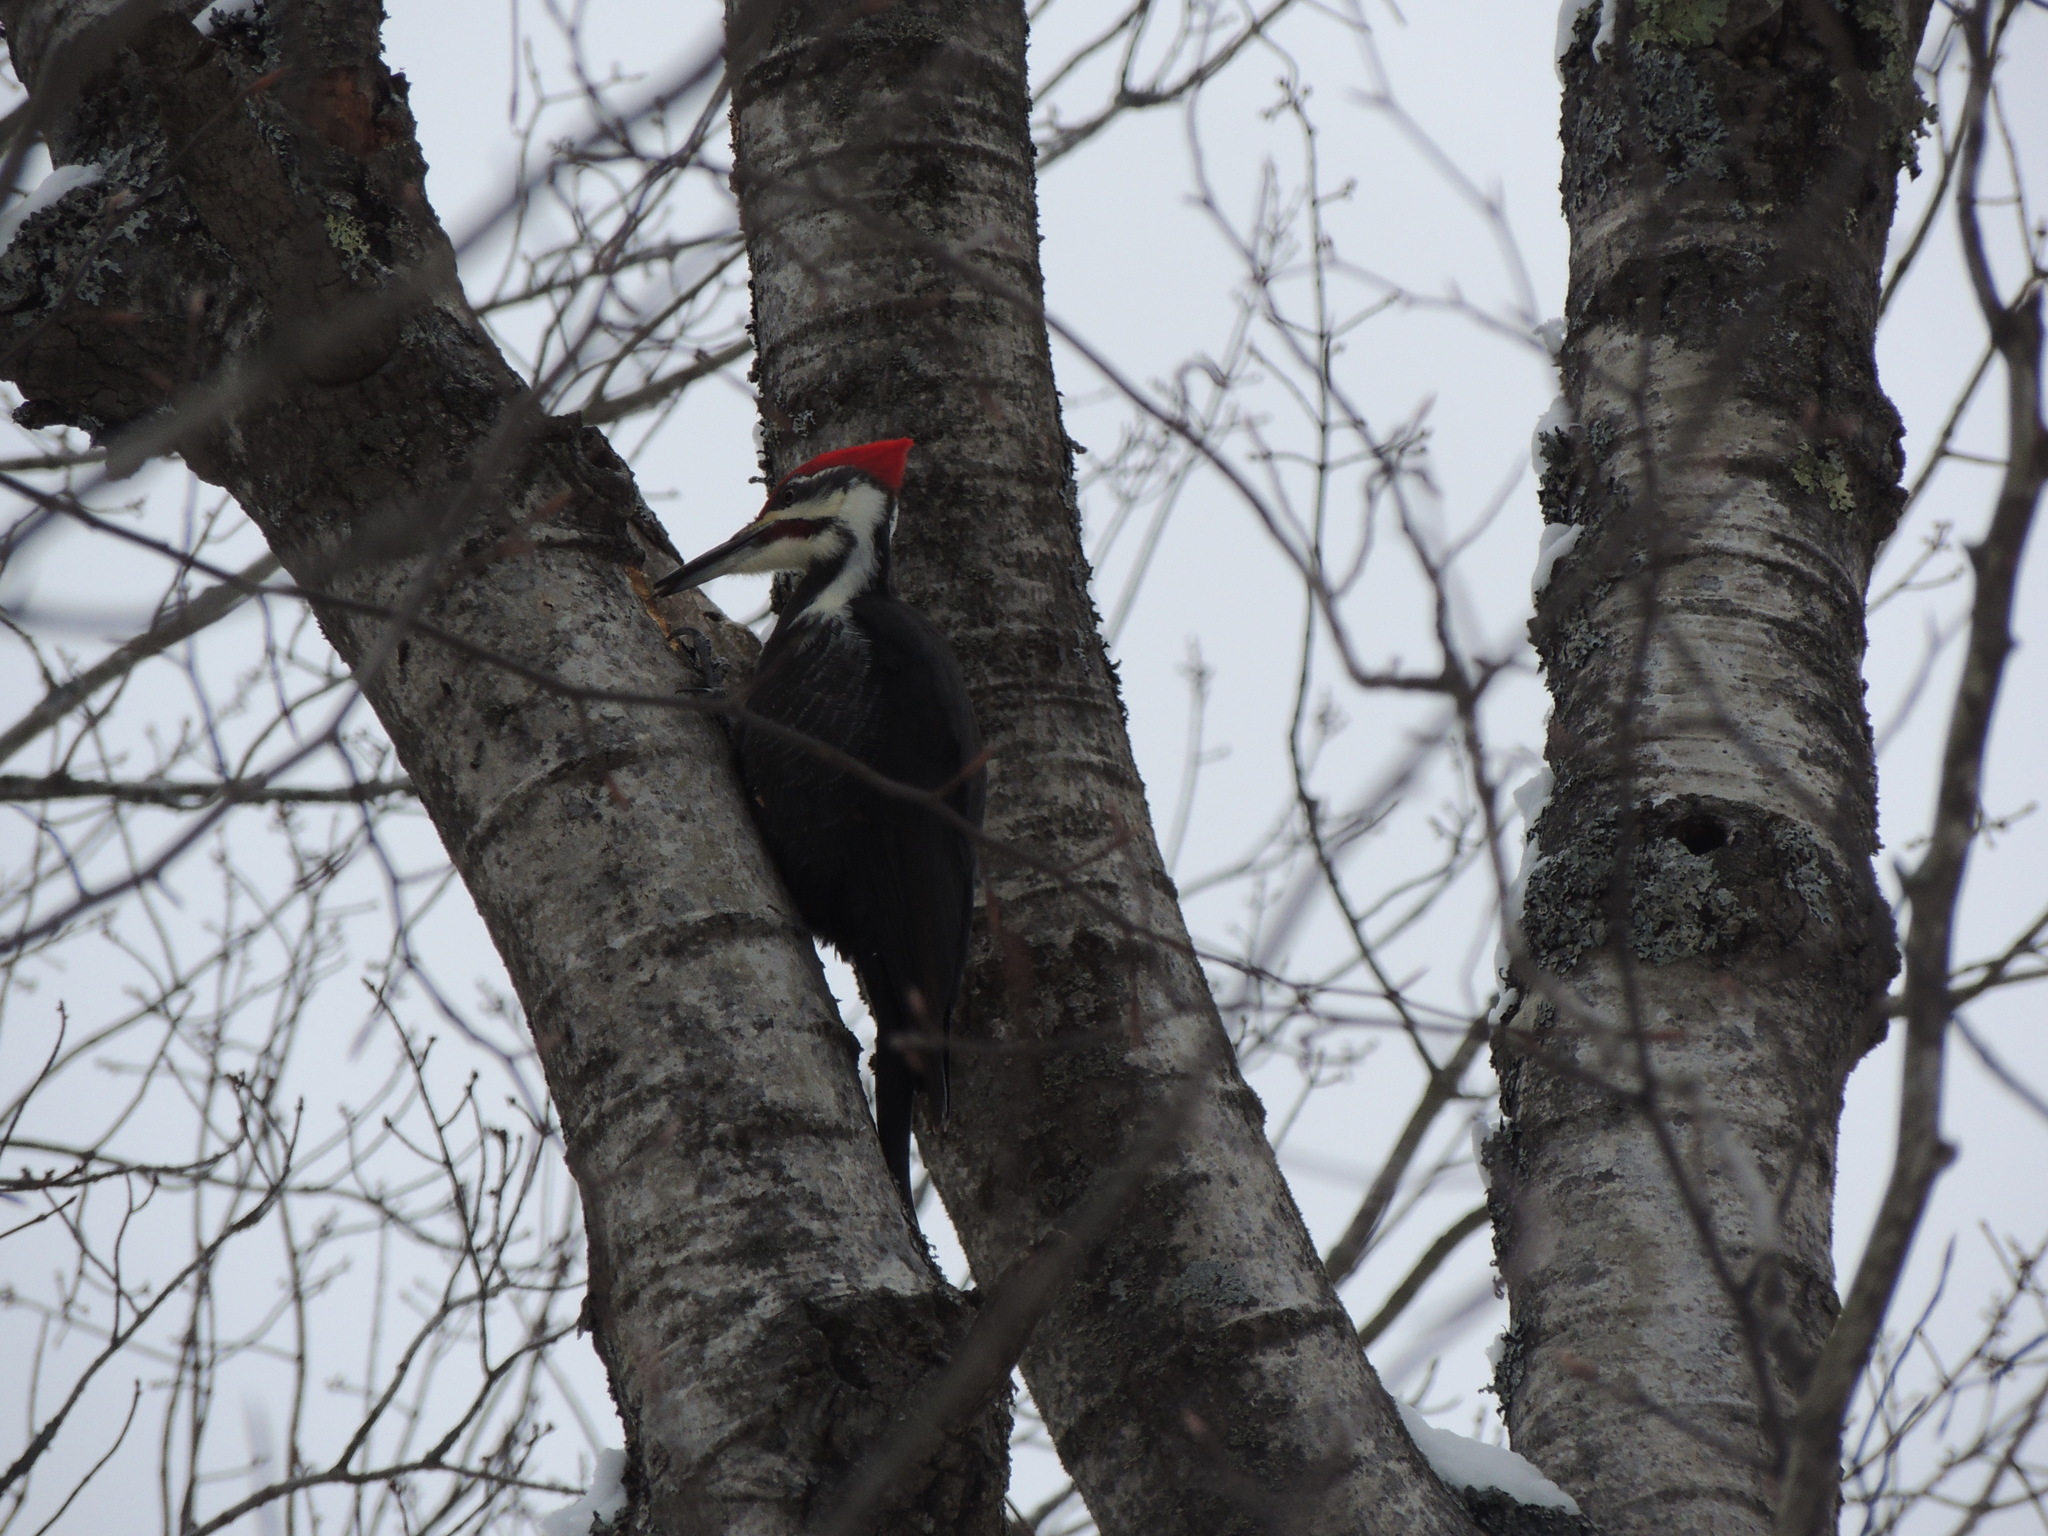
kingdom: Animalia
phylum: Chordata
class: Aves
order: Piciformes
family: Picidae
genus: Dryocopus
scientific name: Dryocopus pileatus
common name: Pileated woodpecker
